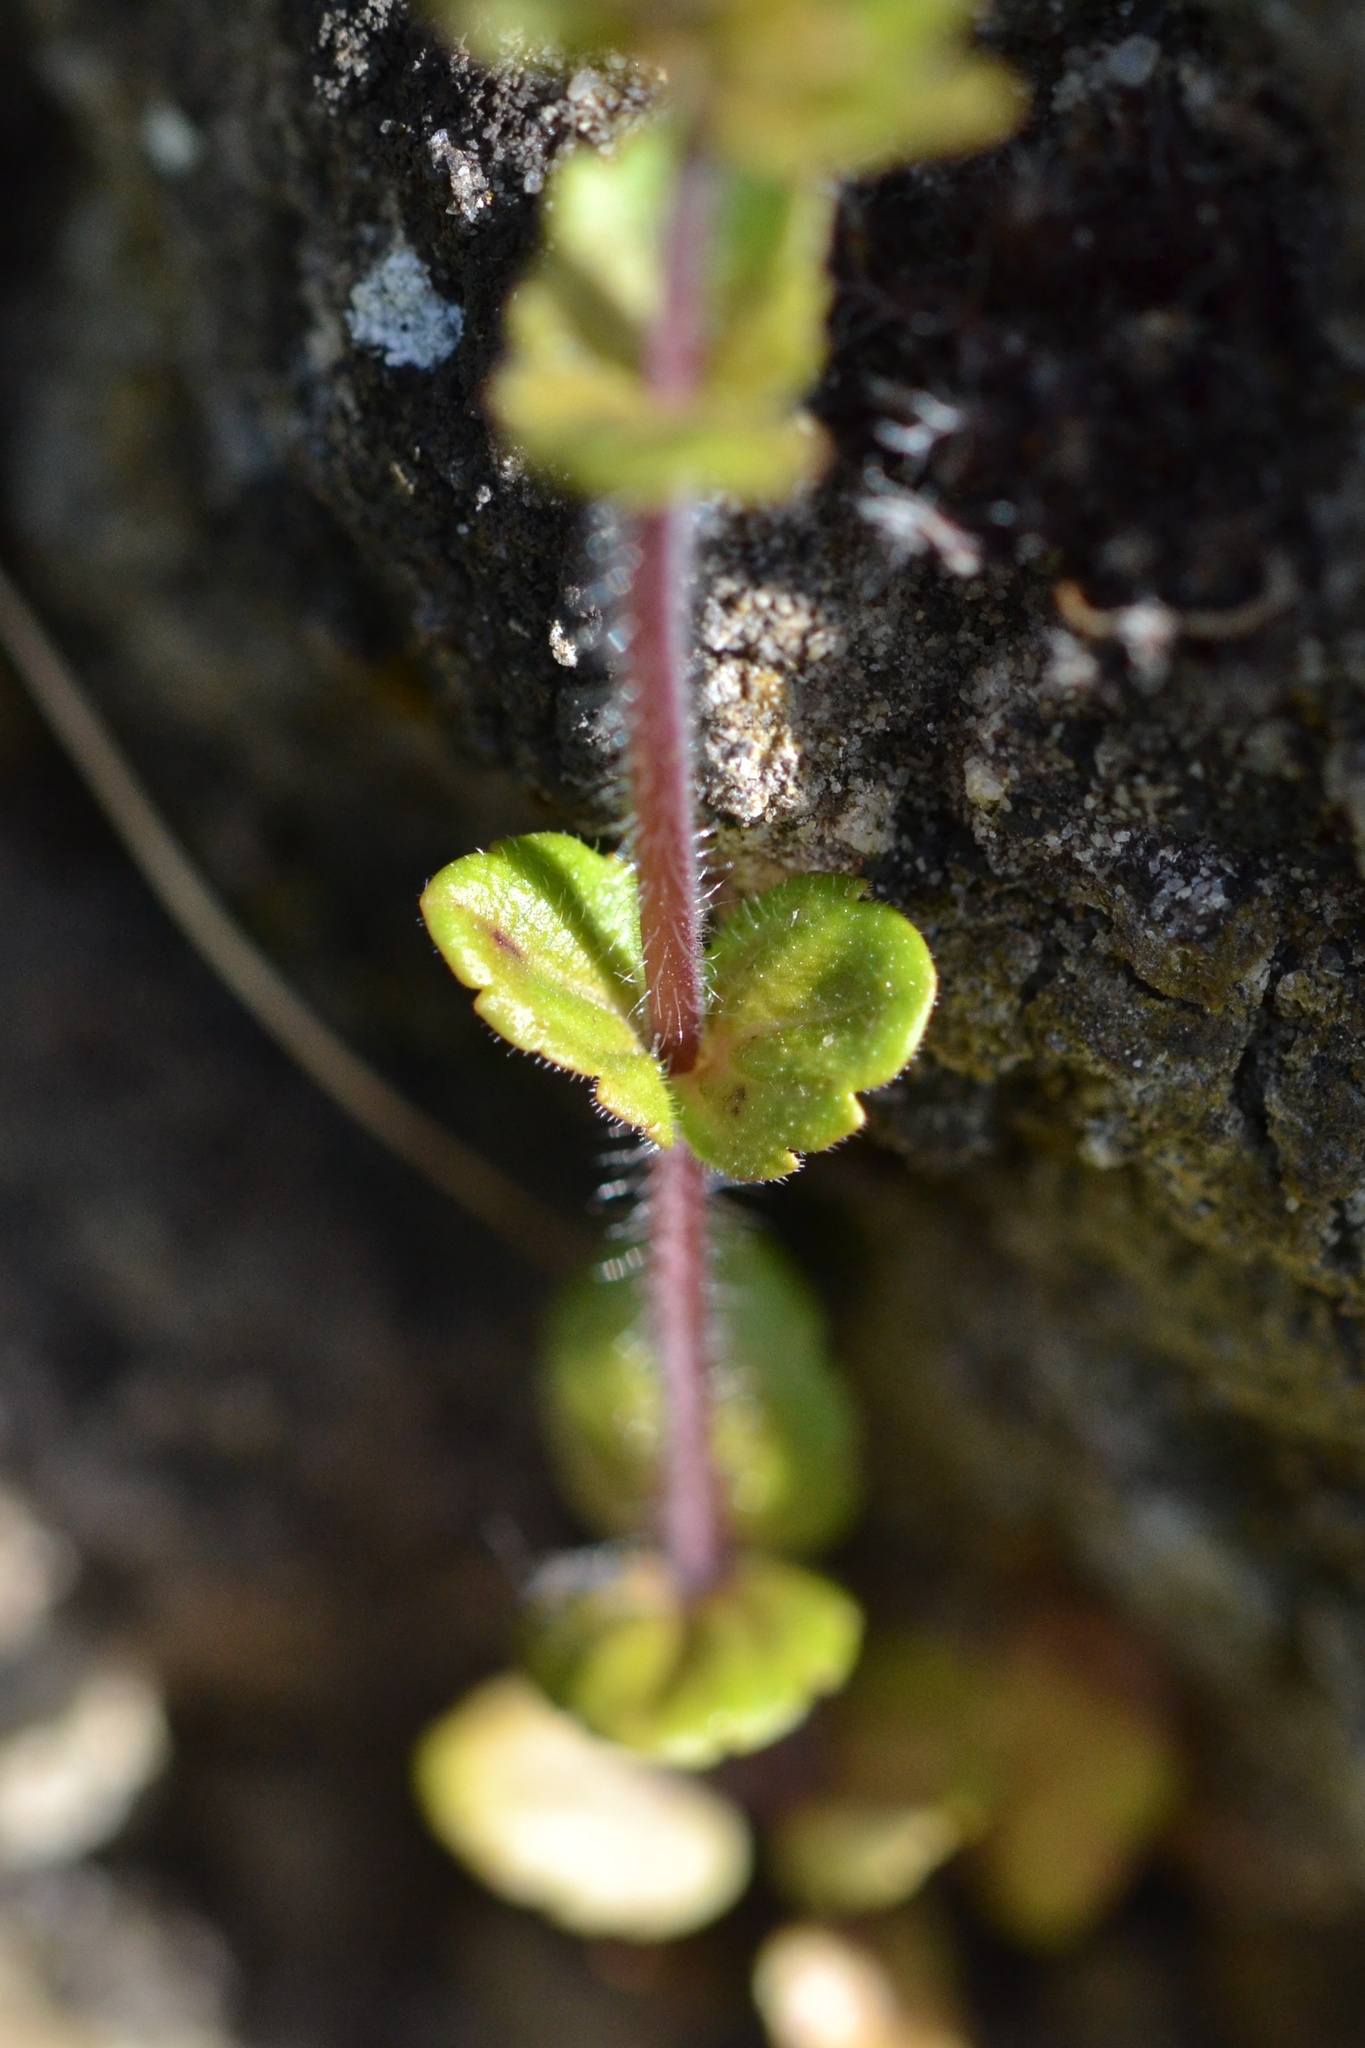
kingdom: Plantae
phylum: Tracheophyta
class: Magnoliopsida
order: Lamiales
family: Plantaginaceae
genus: Veronica
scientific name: Veronica arvensis
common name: Corn speedwell
